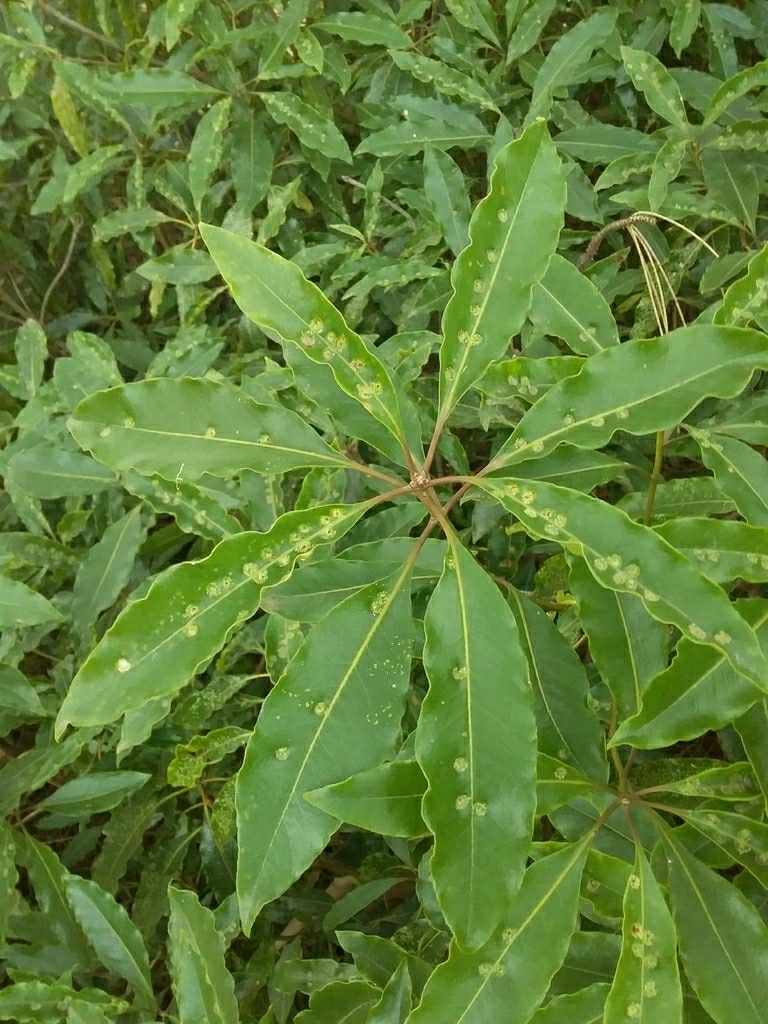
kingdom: Animalia
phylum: Arthropoda
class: Insecta
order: Diptera
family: Agromyzidae
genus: Phytoliriomyza
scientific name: Phytoliriomyza pittosporophylli
